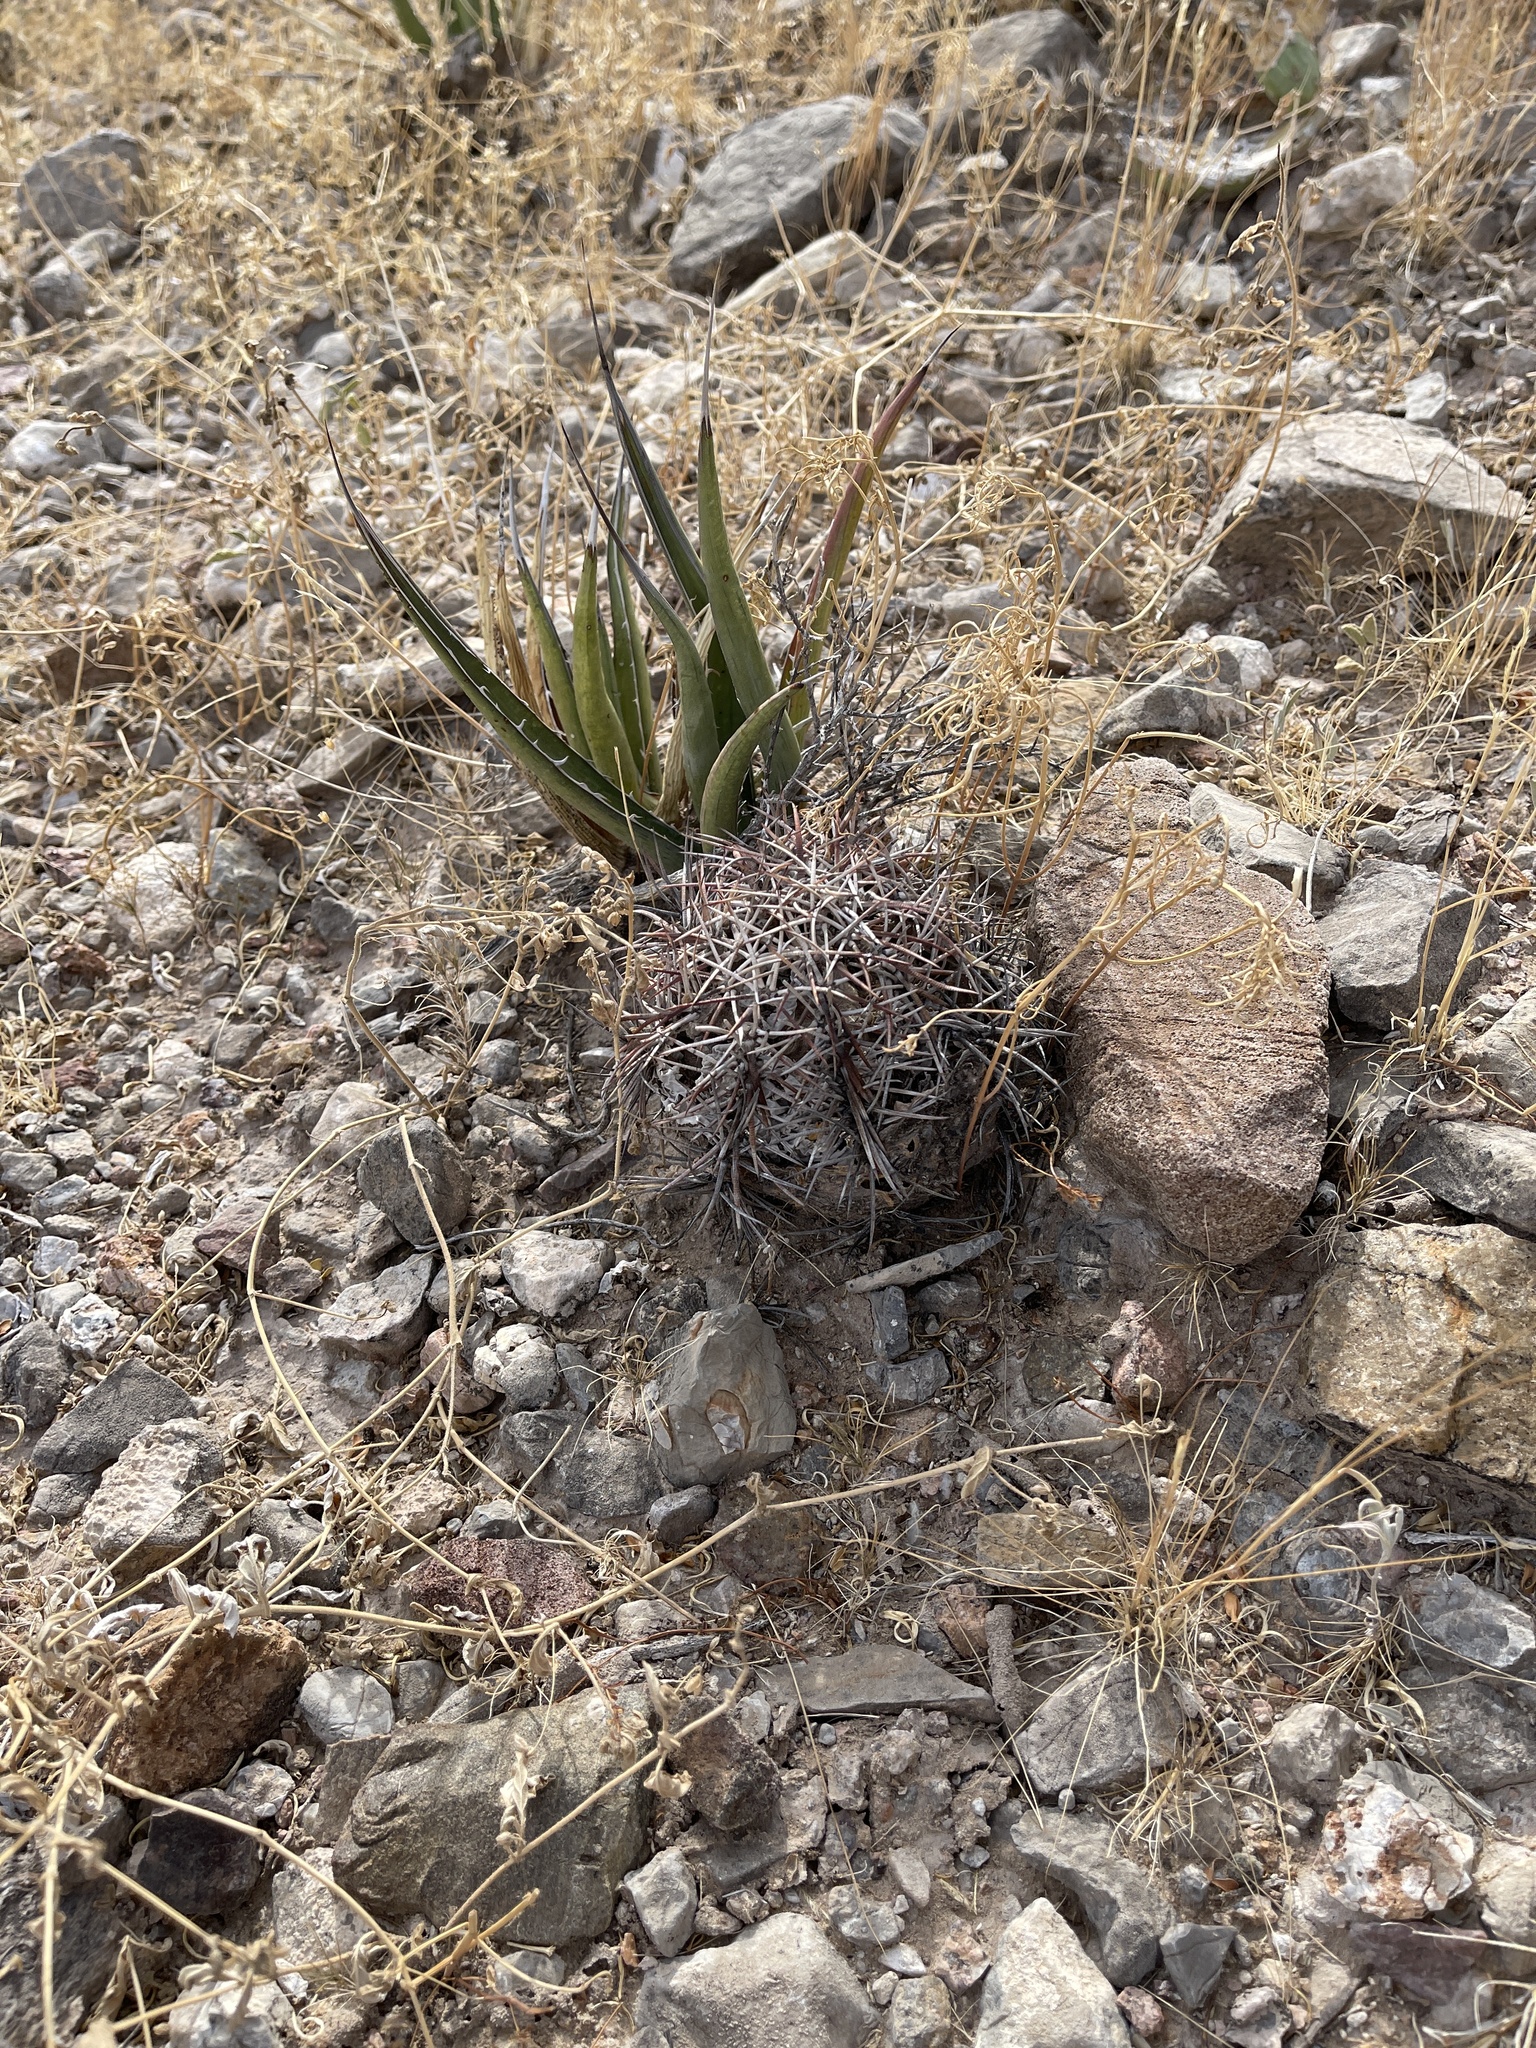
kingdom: Plantae
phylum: Tracheophyta
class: Magnoliopsida
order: Caryophyllales
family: Cactaceae
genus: Echinocactus
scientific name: Echinocactus horizonthalonius
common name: Devilshead
